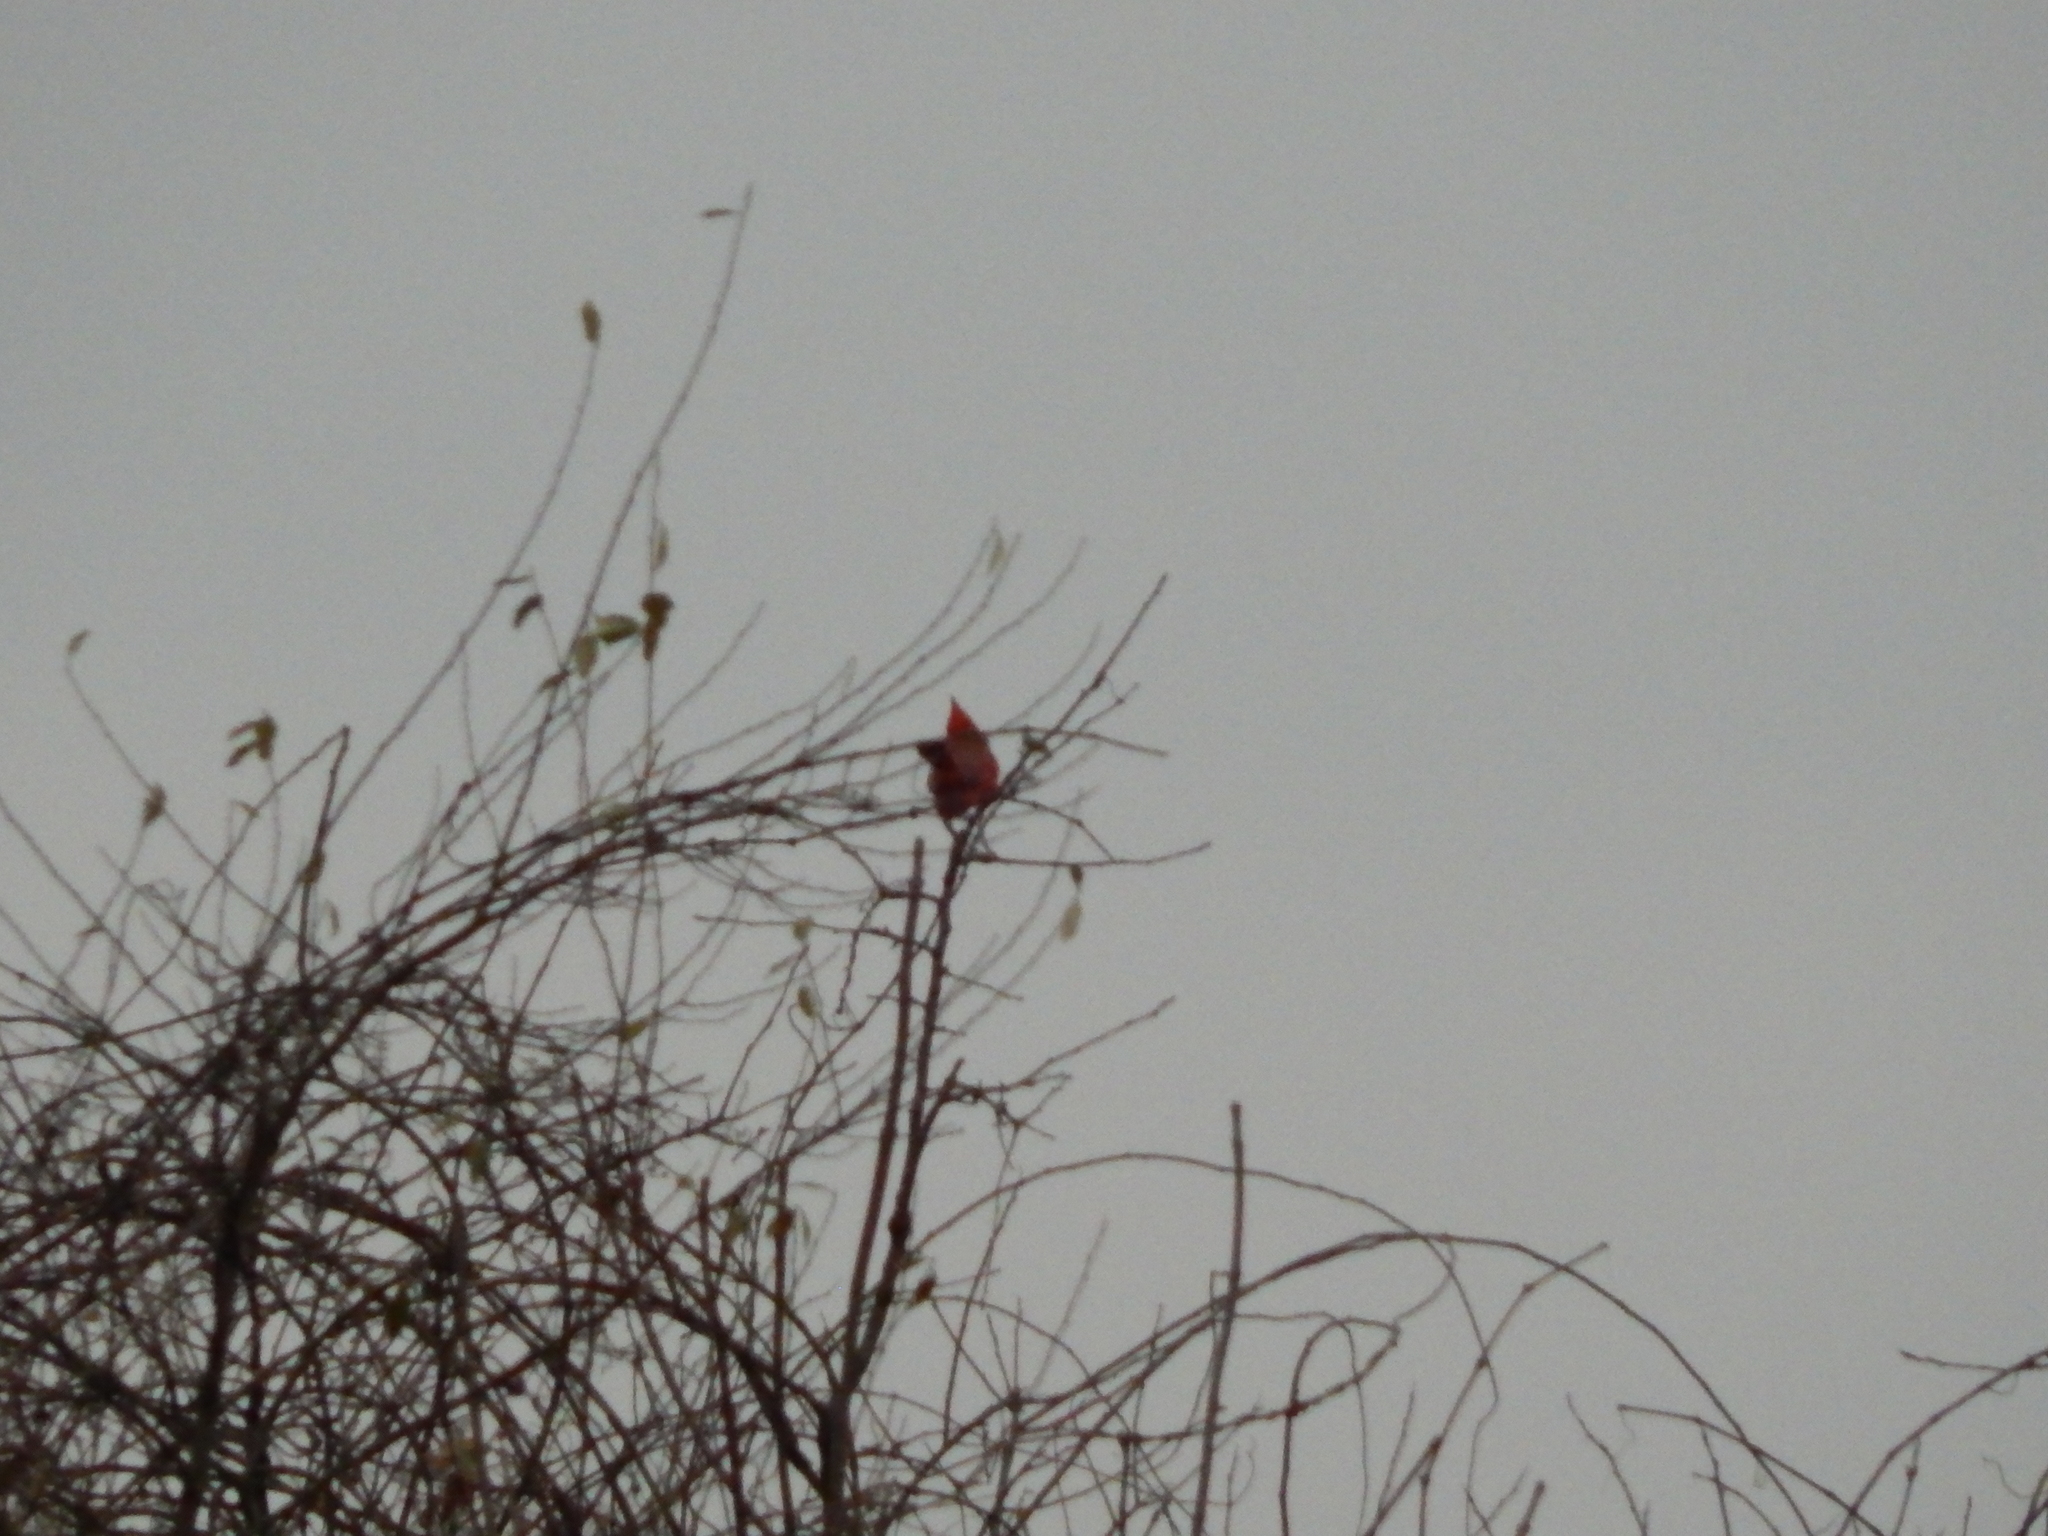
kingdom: Animalia
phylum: Chordata
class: Aves
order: Passeriformes
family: Cardinalidae
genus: Cardinalis
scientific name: Cardinalis cardinalis
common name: Northern cardinal
